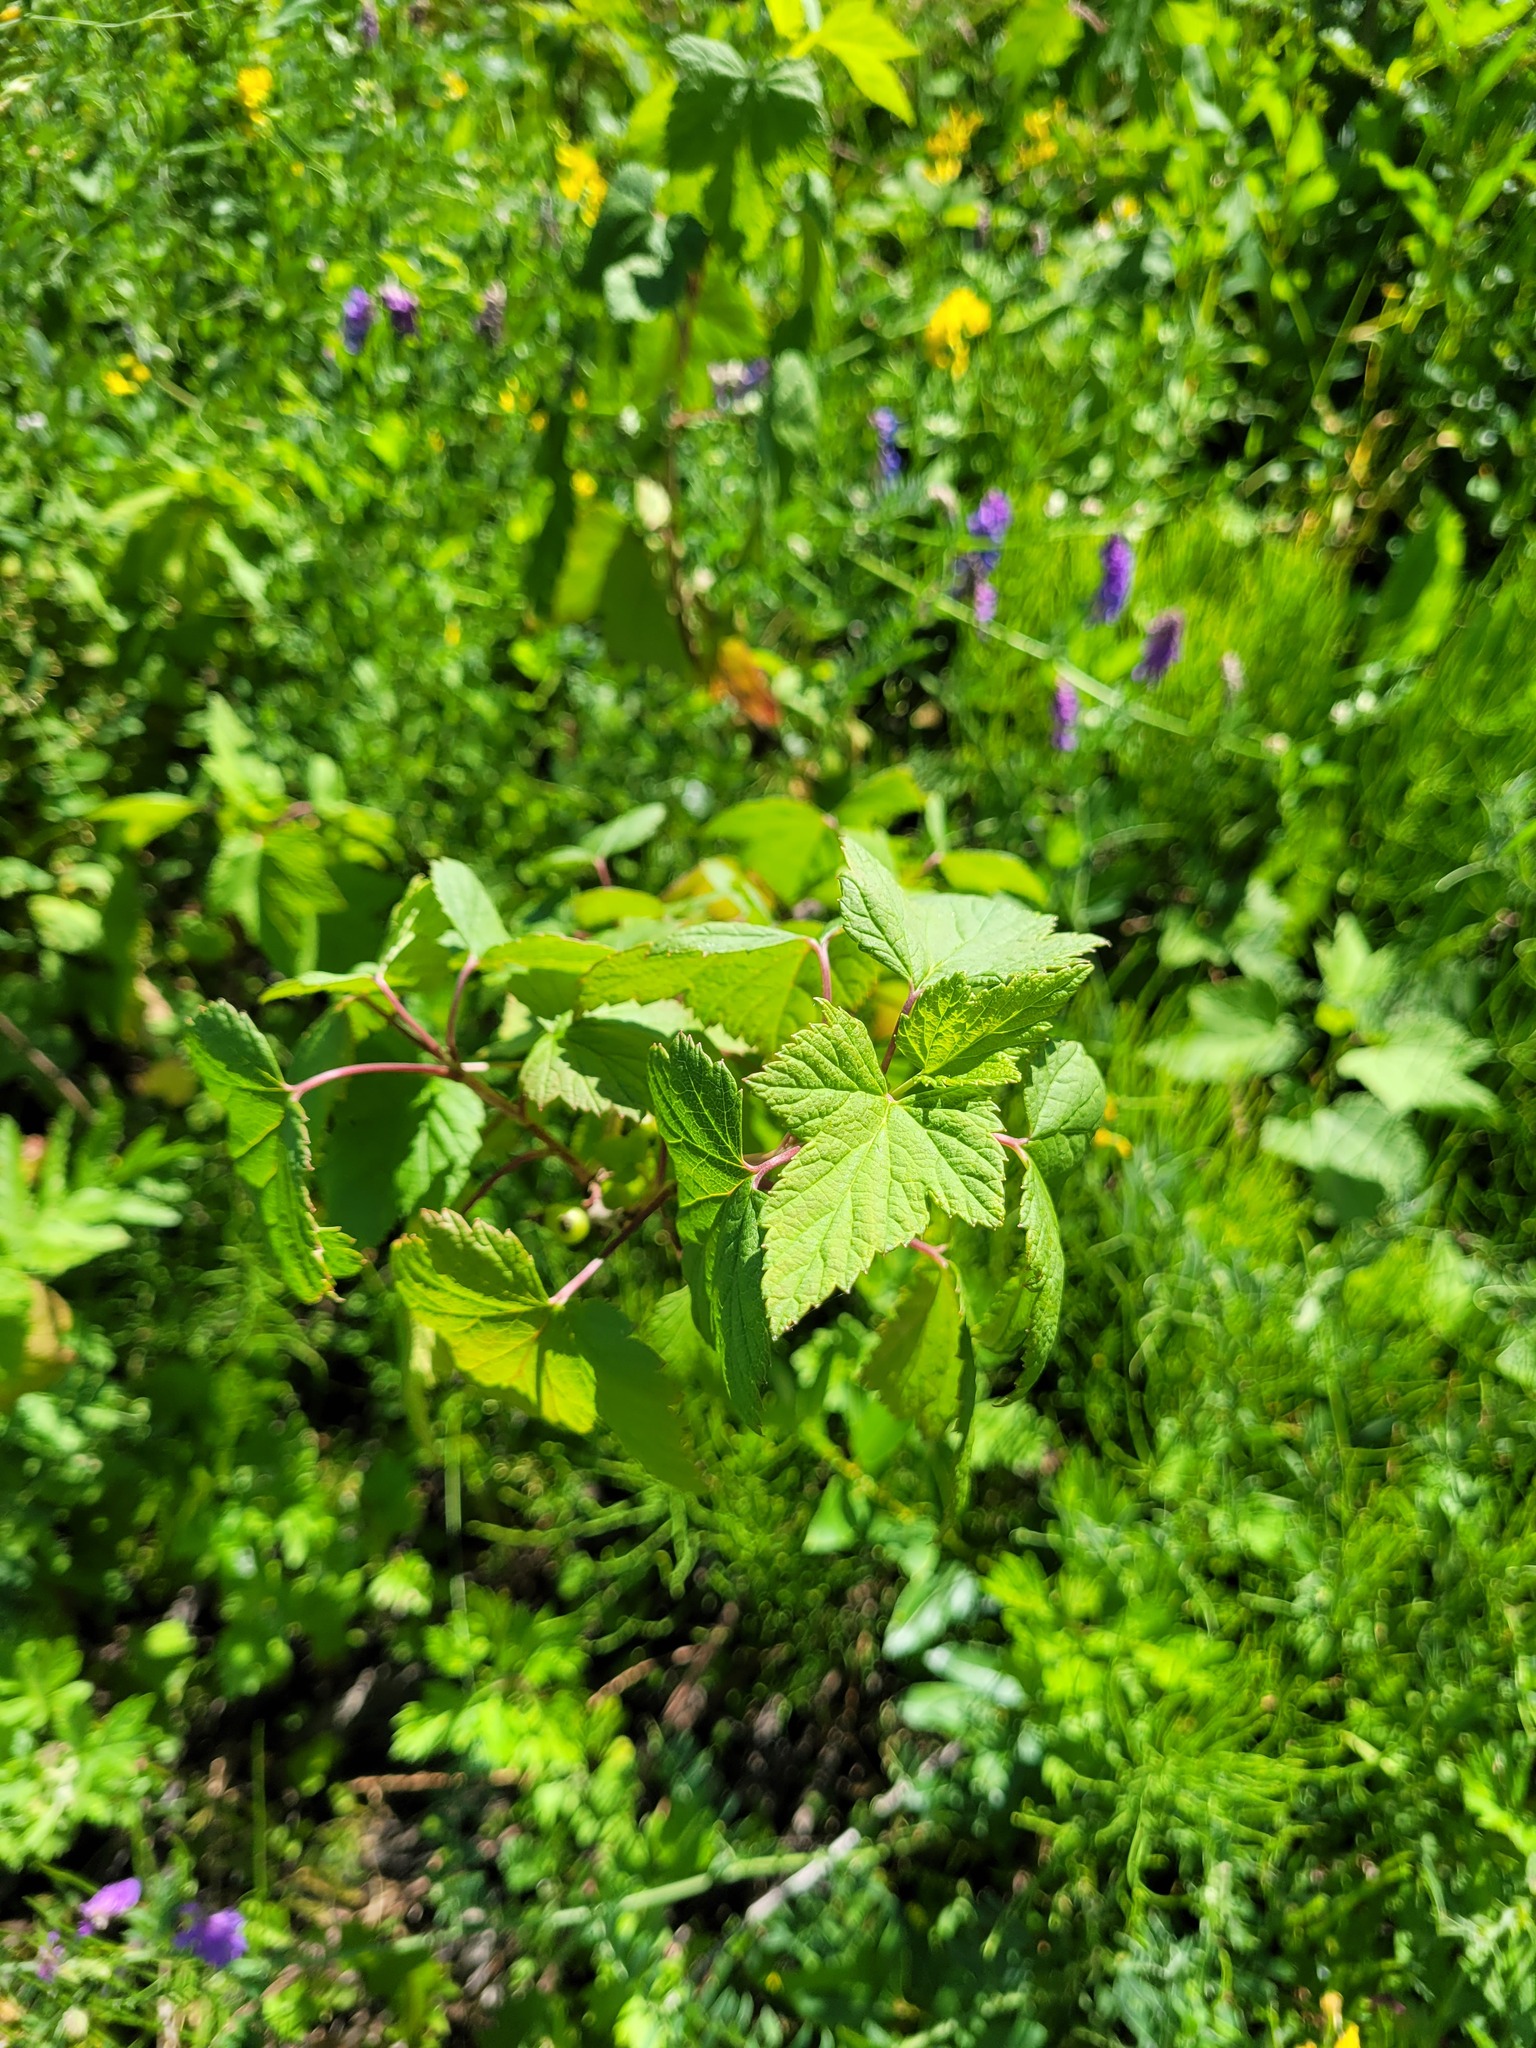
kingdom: Plantae
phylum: Tracheophyta
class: Magnoliopsida
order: Saxifragales
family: Grossulariaceae
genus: Ribes
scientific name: Ribes nigrum
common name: Black currant
